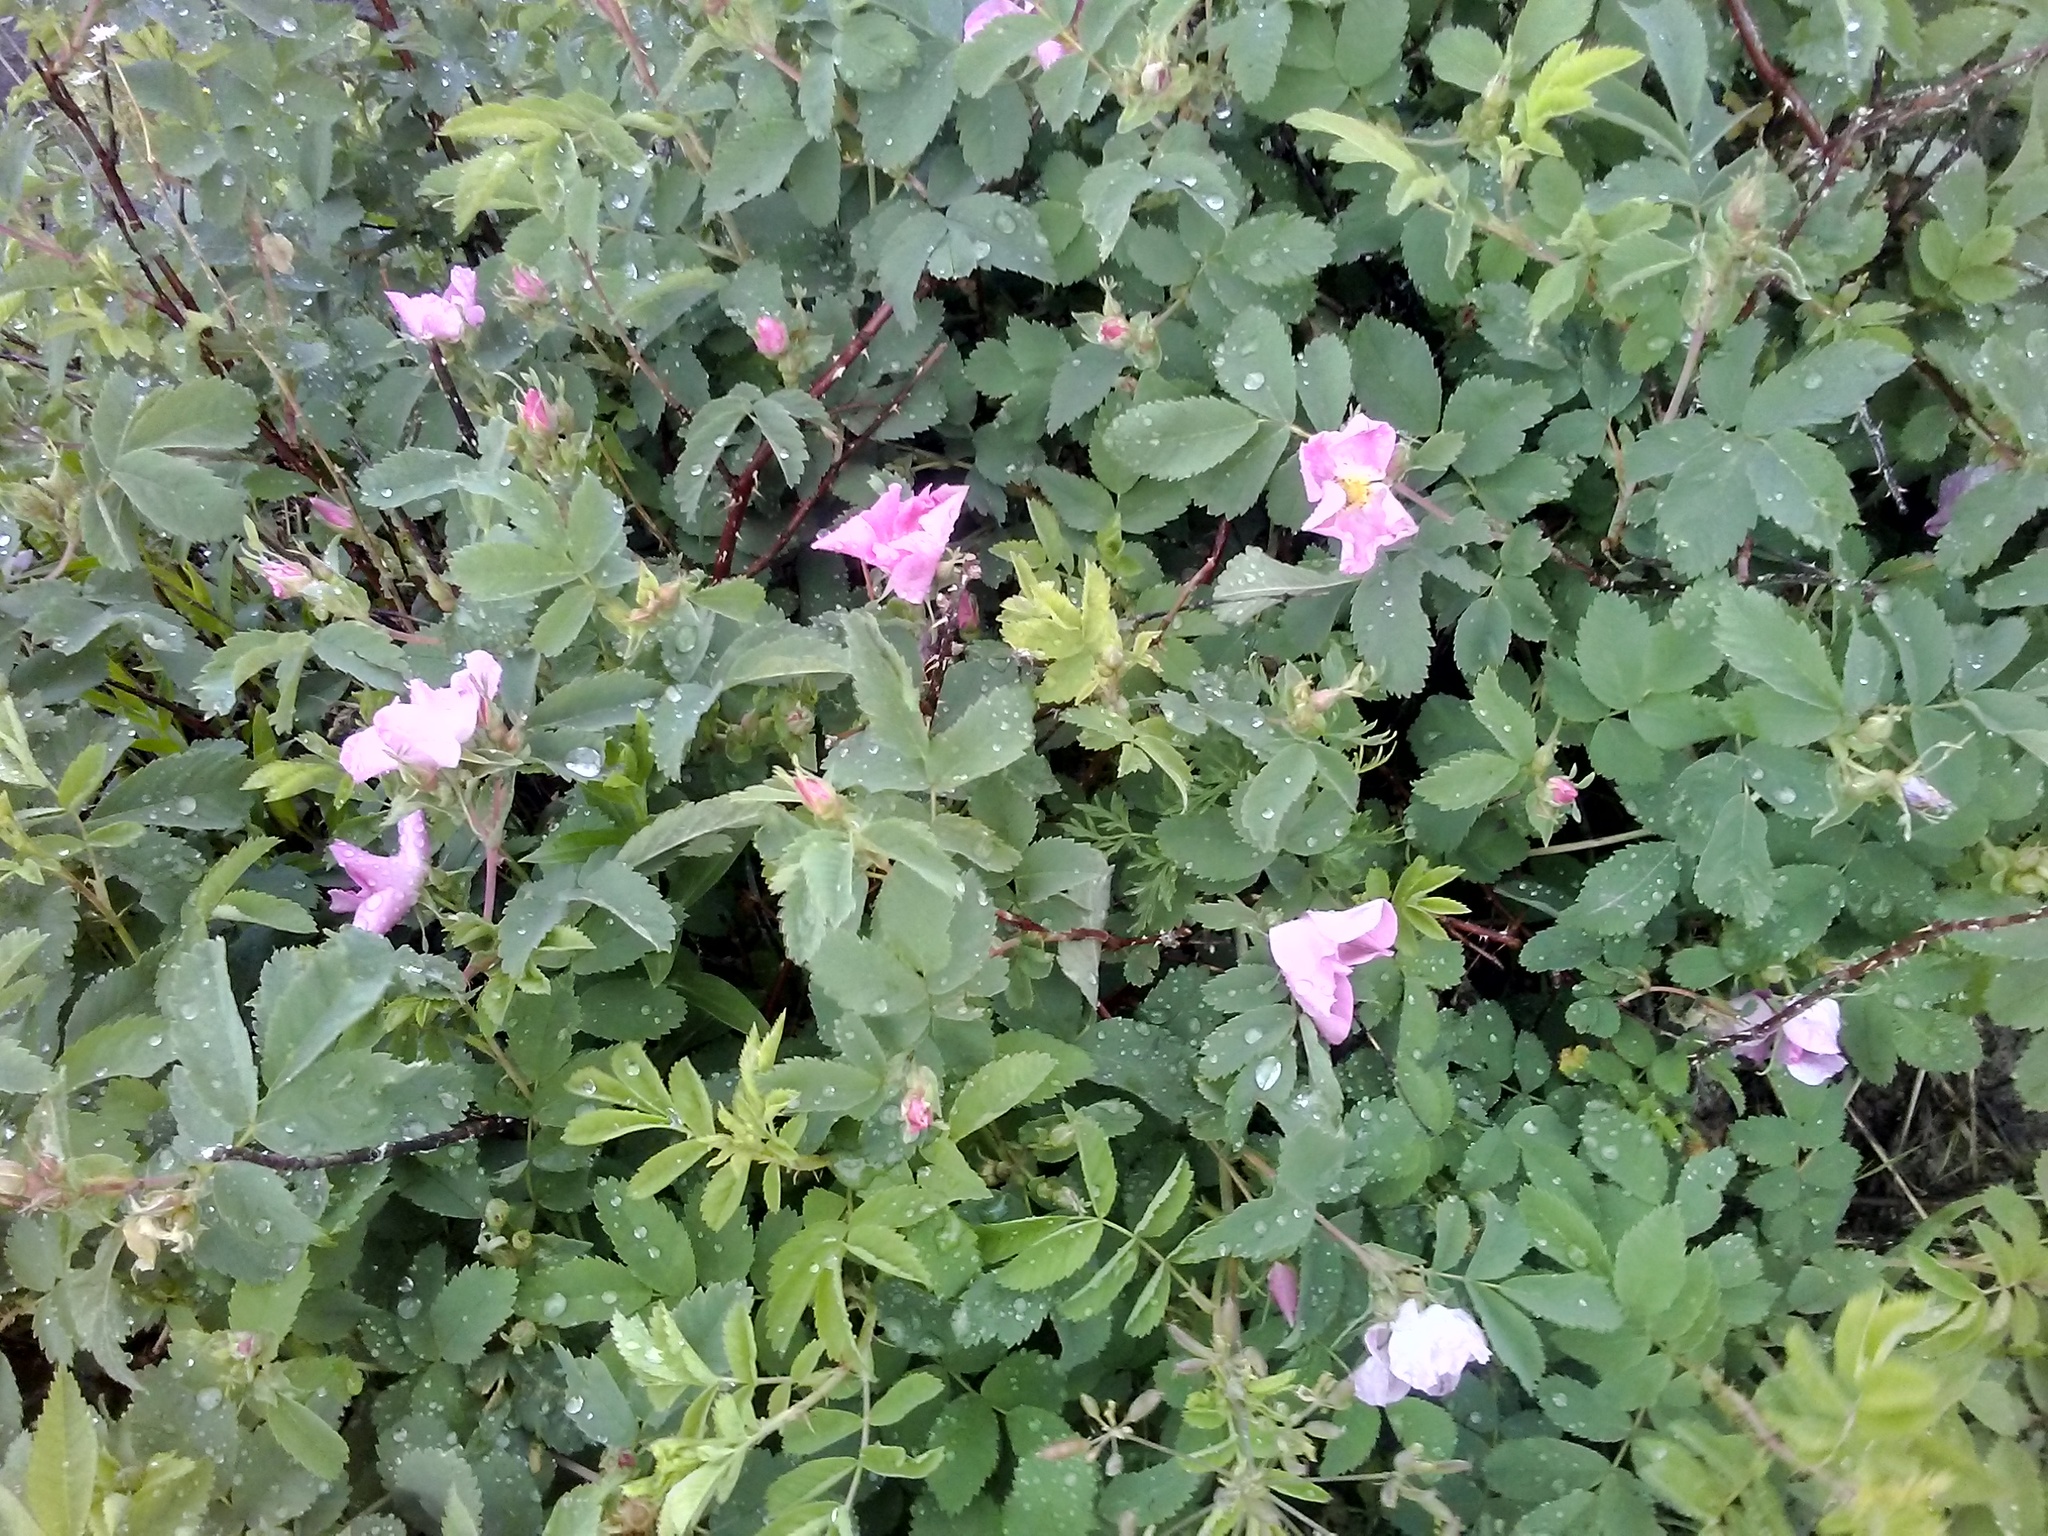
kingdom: Plantae
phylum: Tracheophyta
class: Magnoliopsida
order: Rosales
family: Rosaceae
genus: Rosa
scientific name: Rosa woodsii
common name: Woods's rose
